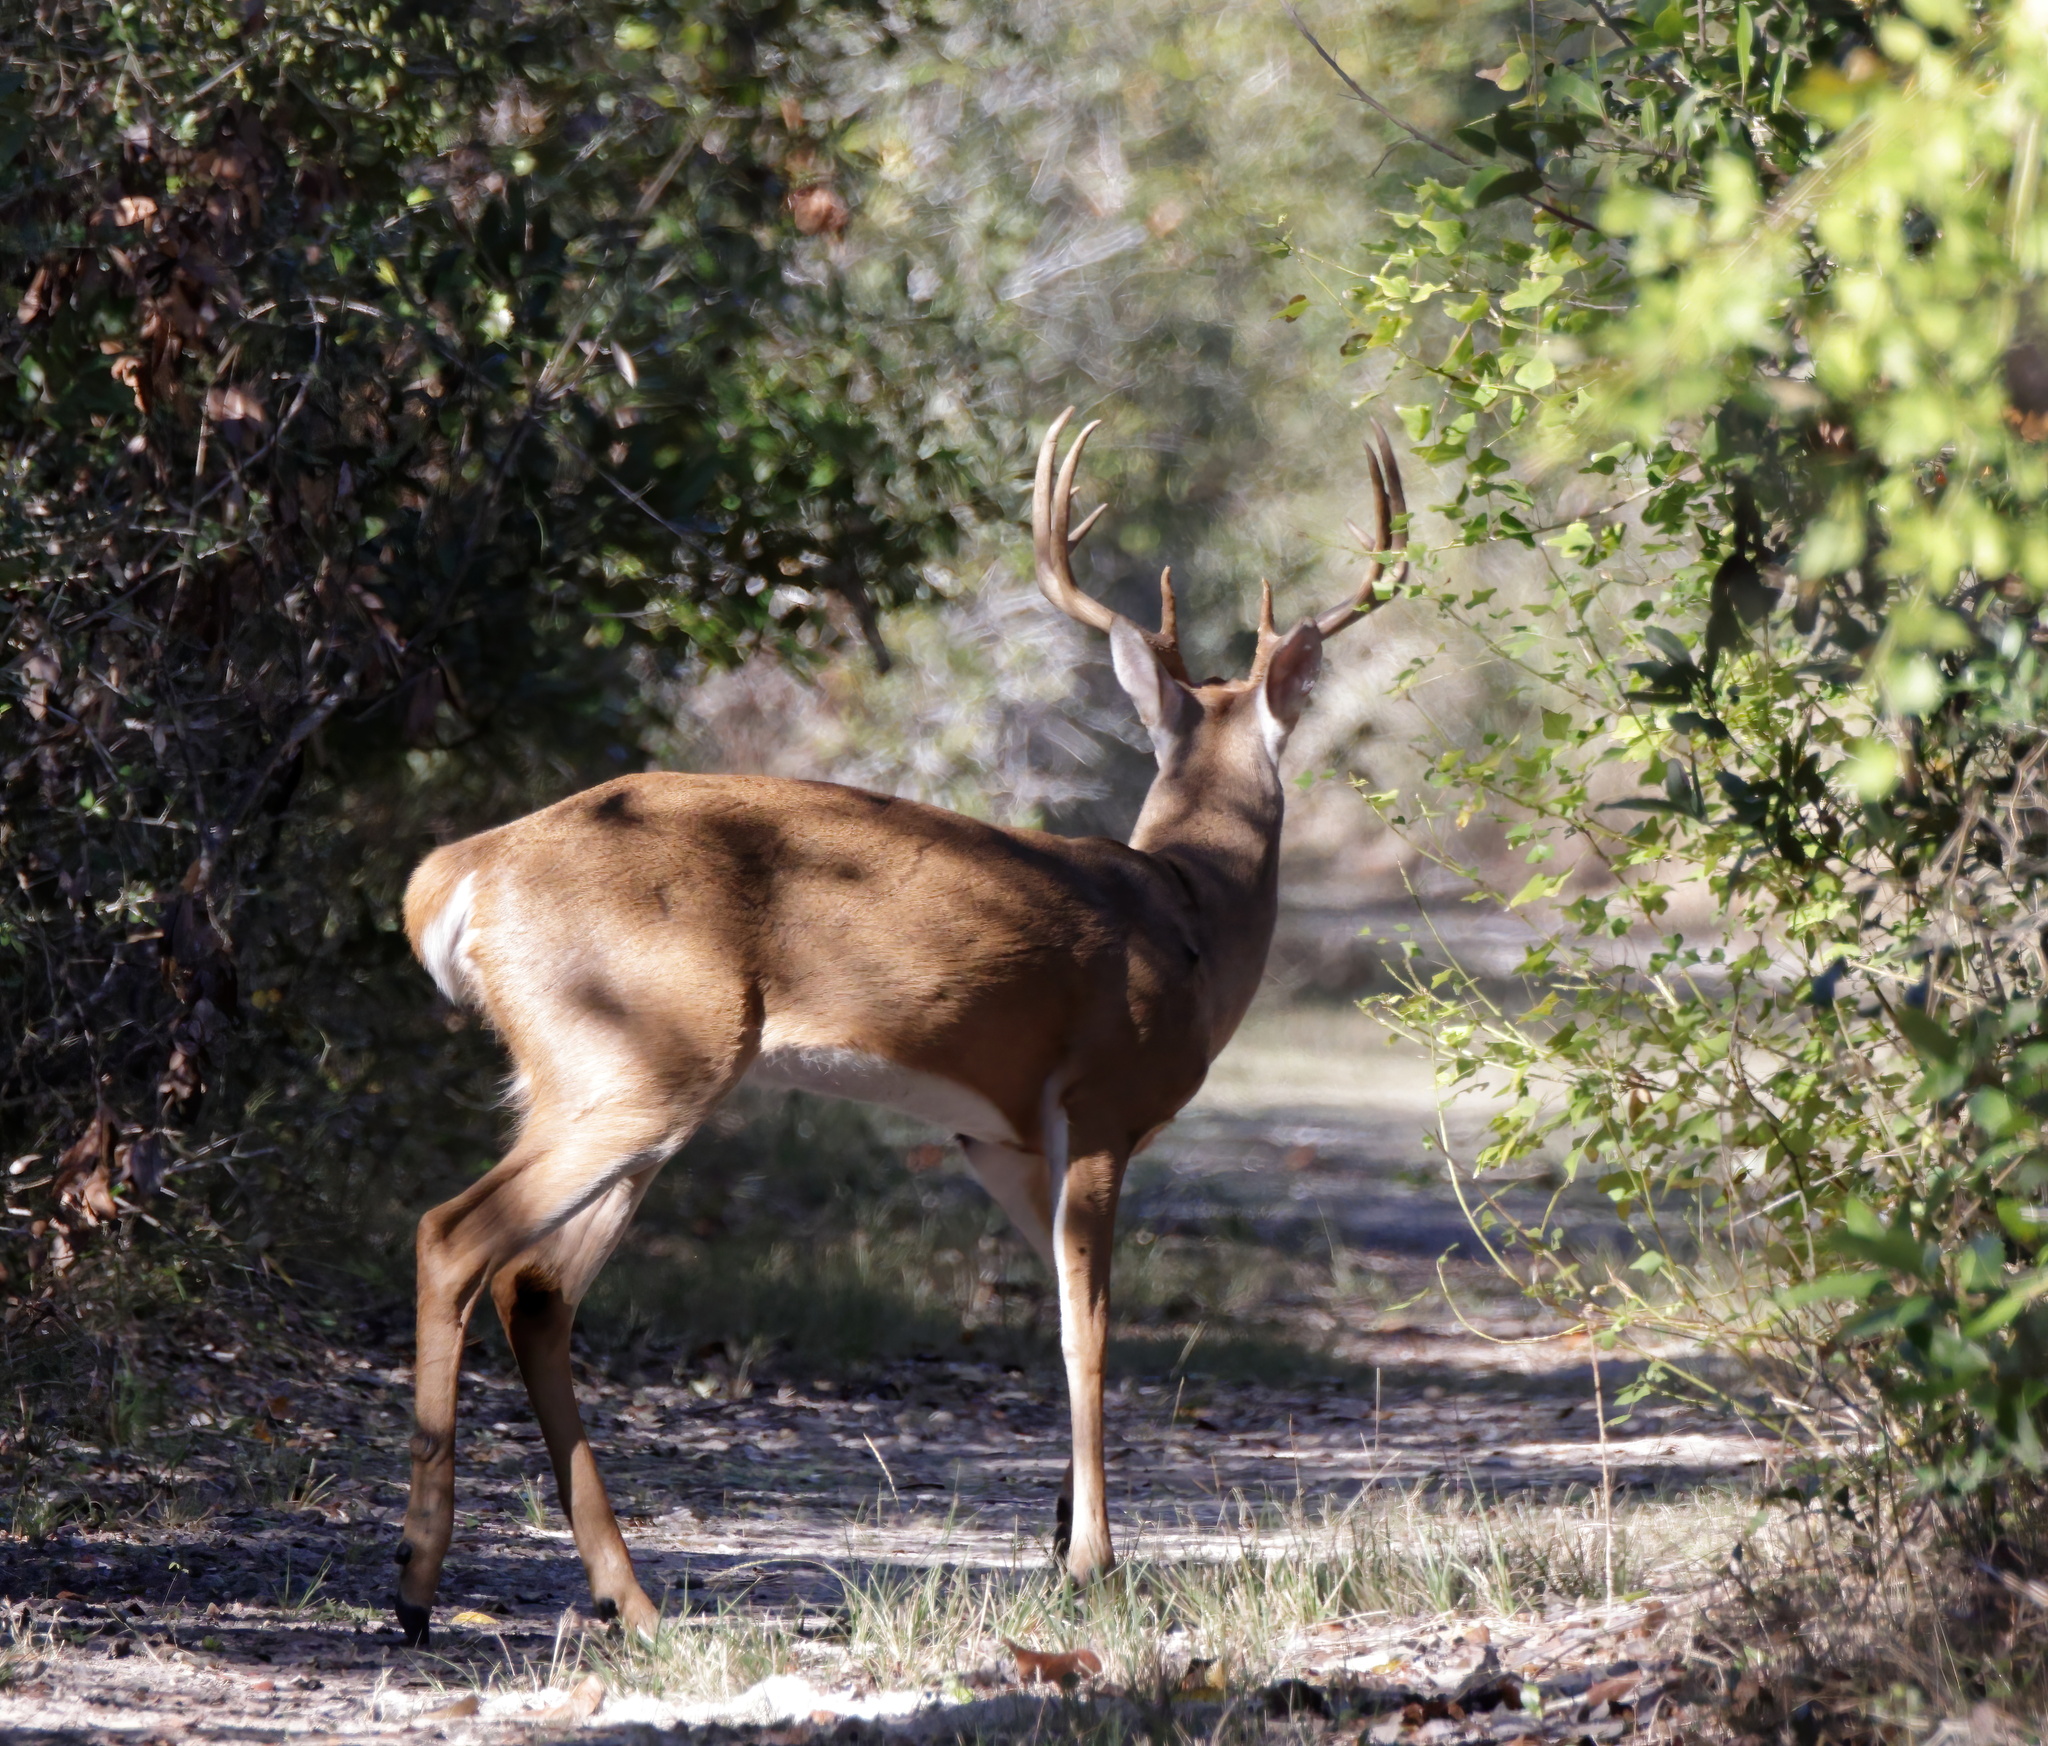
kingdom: Animalia
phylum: Chordata
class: Mammalia
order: Artiodactyla
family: Cervidae
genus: Odocoileus
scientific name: Odocoileus virginianus
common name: White-tailed deer
